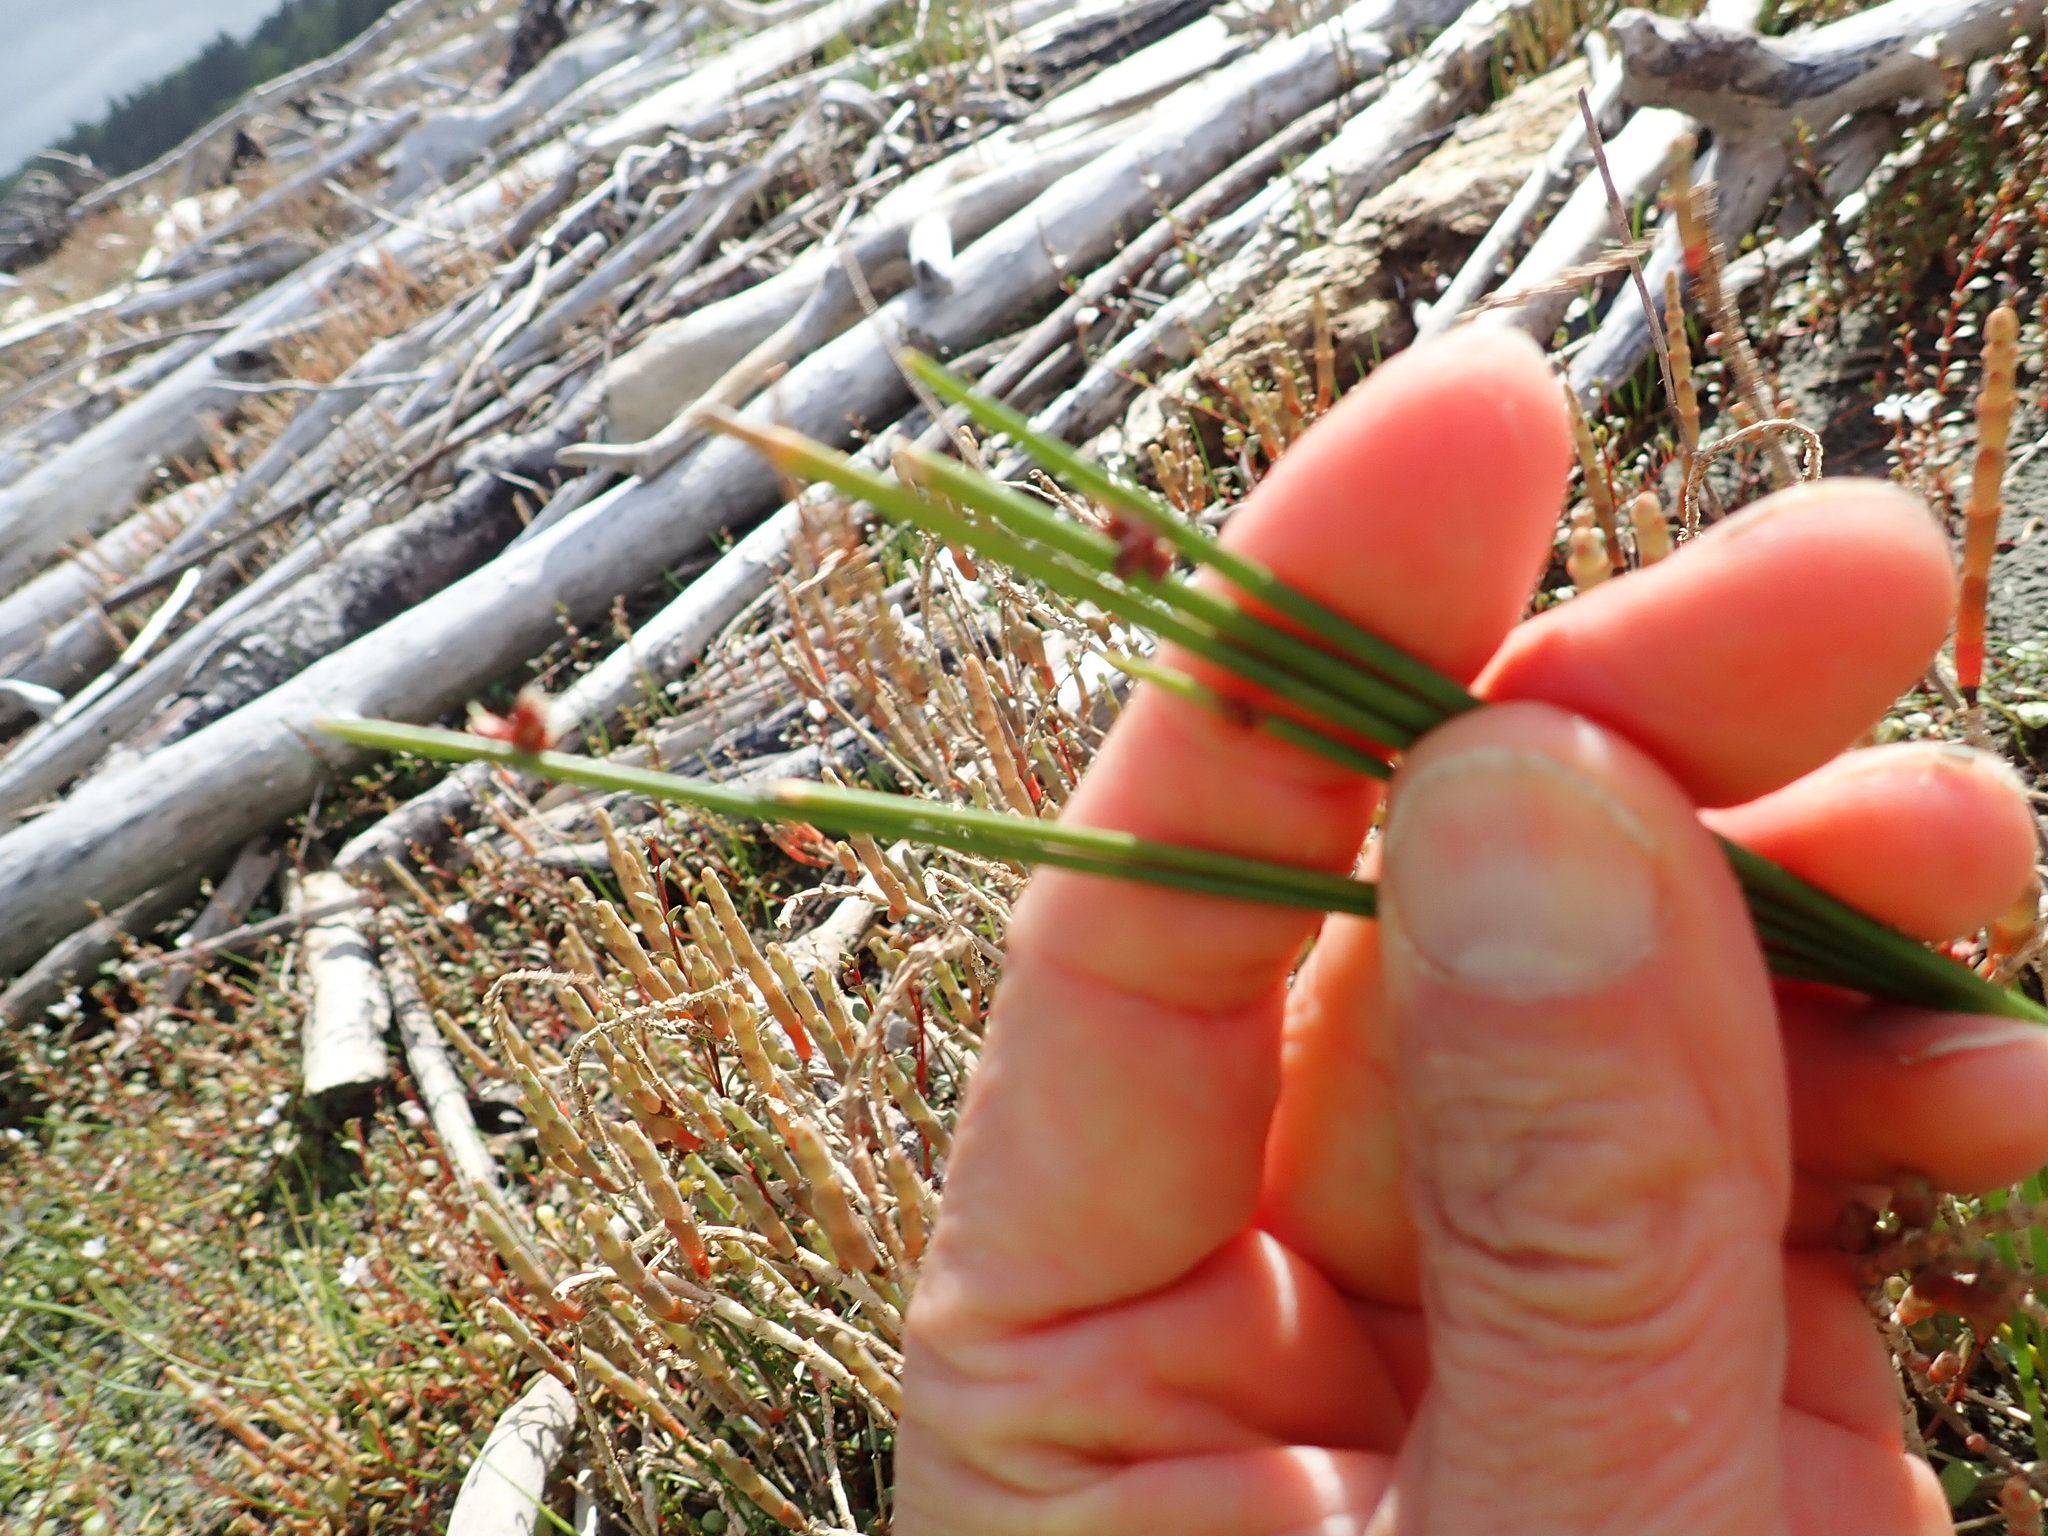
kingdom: Plantae
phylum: Tracheophyta
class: Liliopsida
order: Poales
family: Cyperaceae
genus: Ficinia
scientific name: Ficinia nodosa
